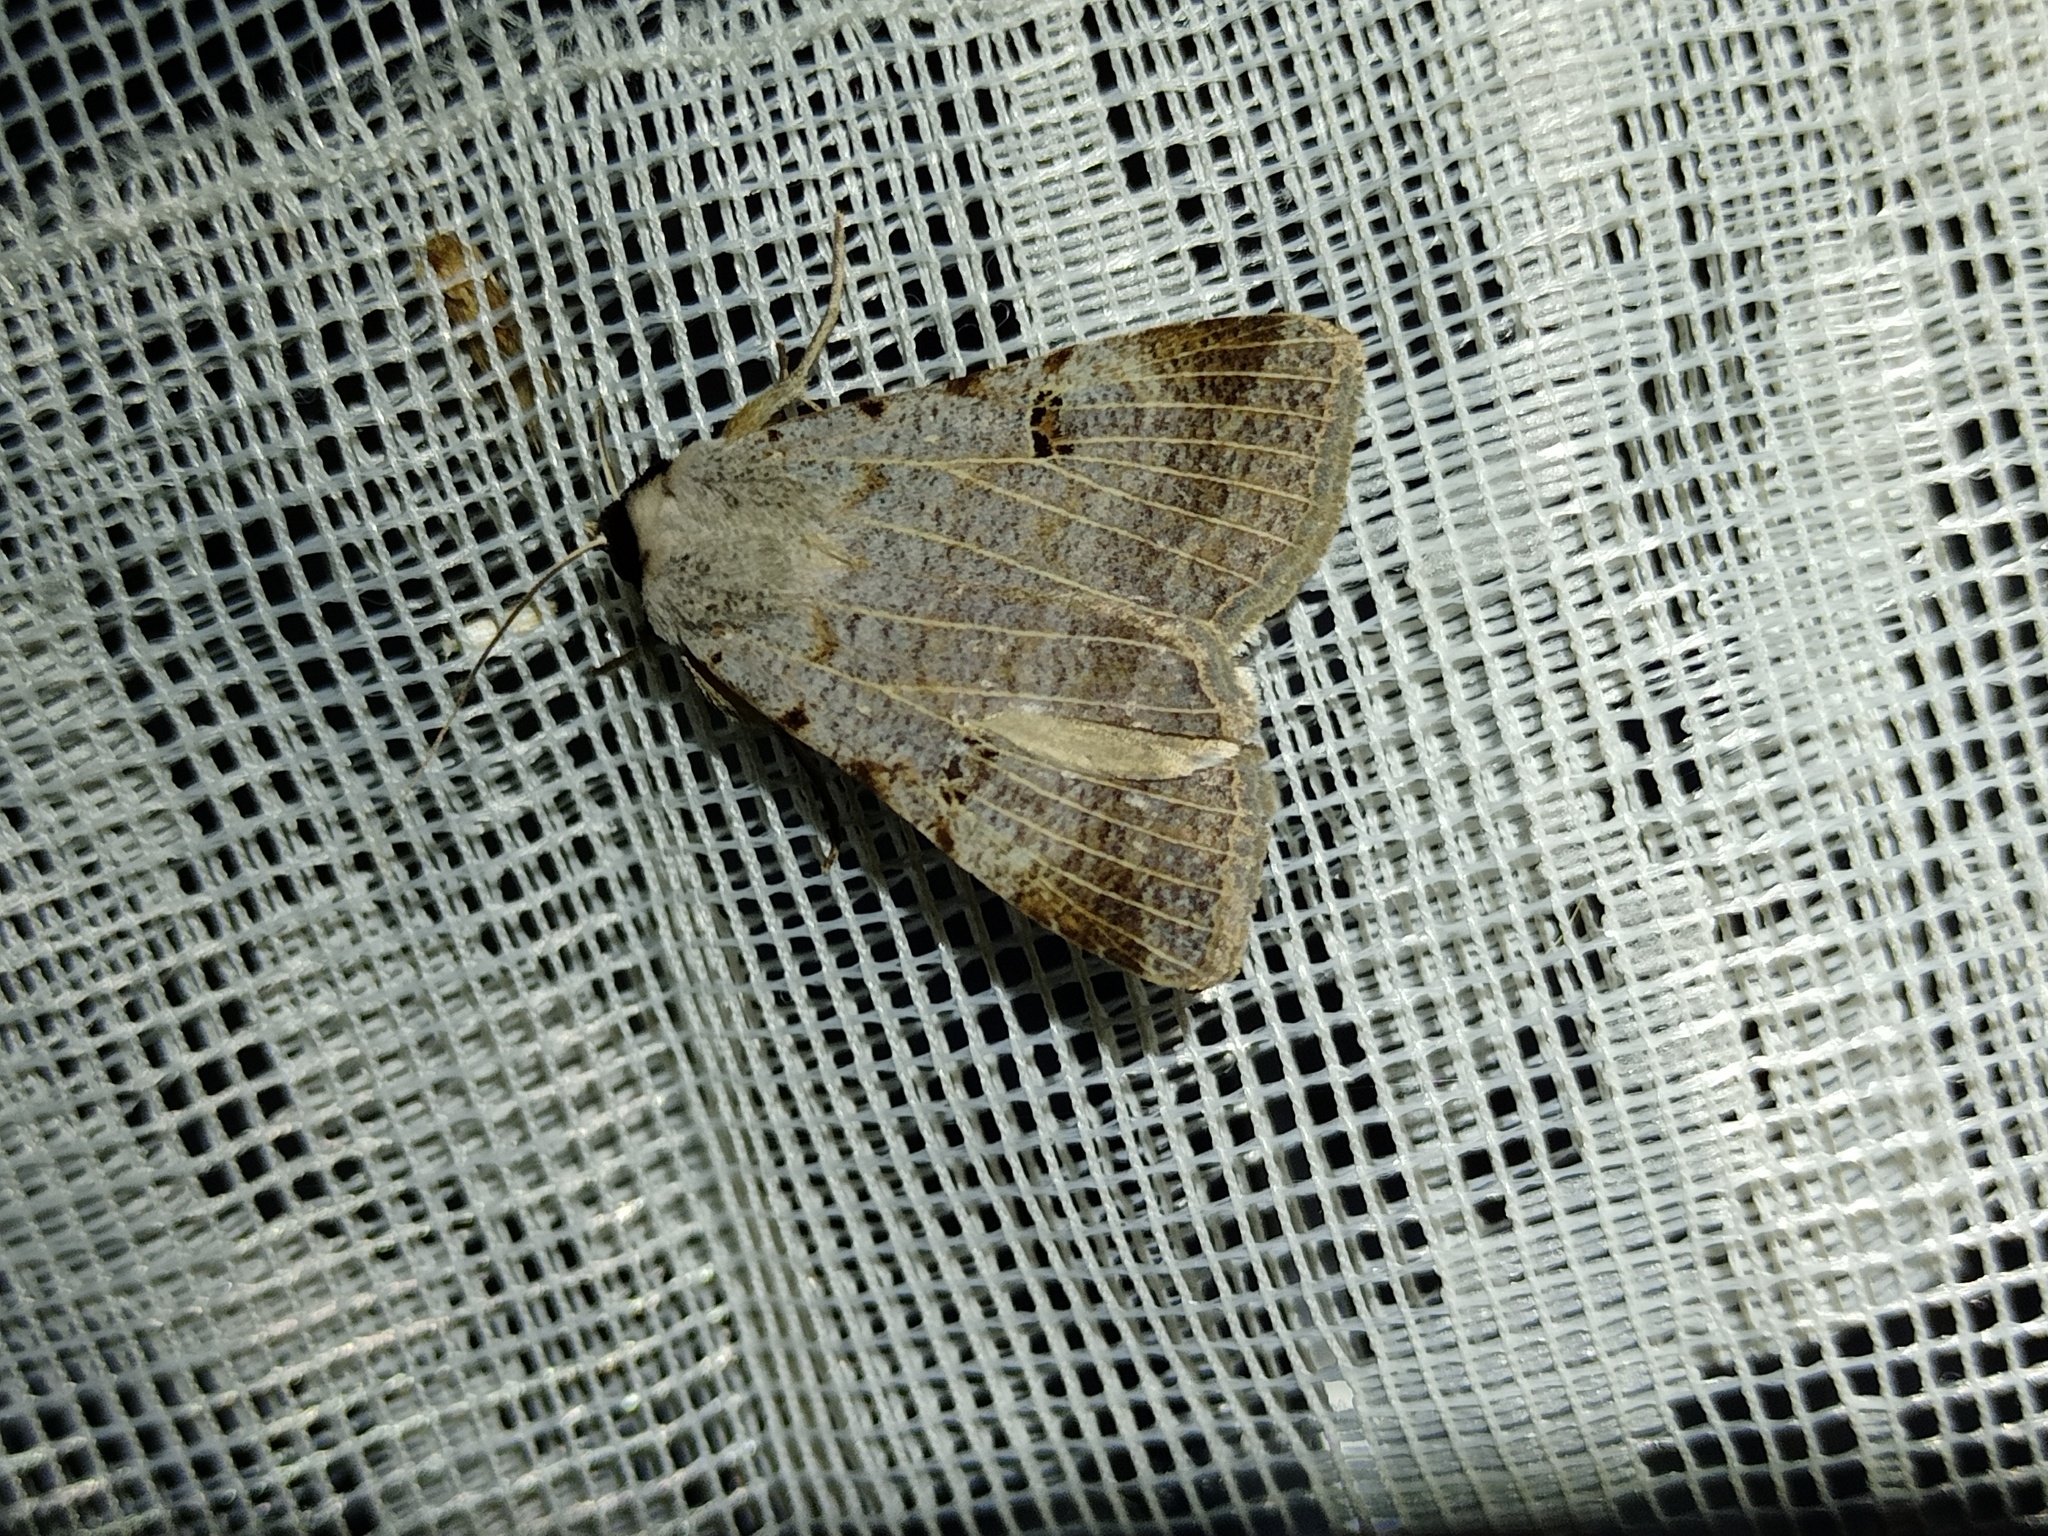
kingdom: Animalia
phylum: Arthropoda
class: Insecta
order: Lepidoptera
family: Erebidae
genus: Lygephila
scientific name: Lygephila craccae
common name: Scarce blackneck
